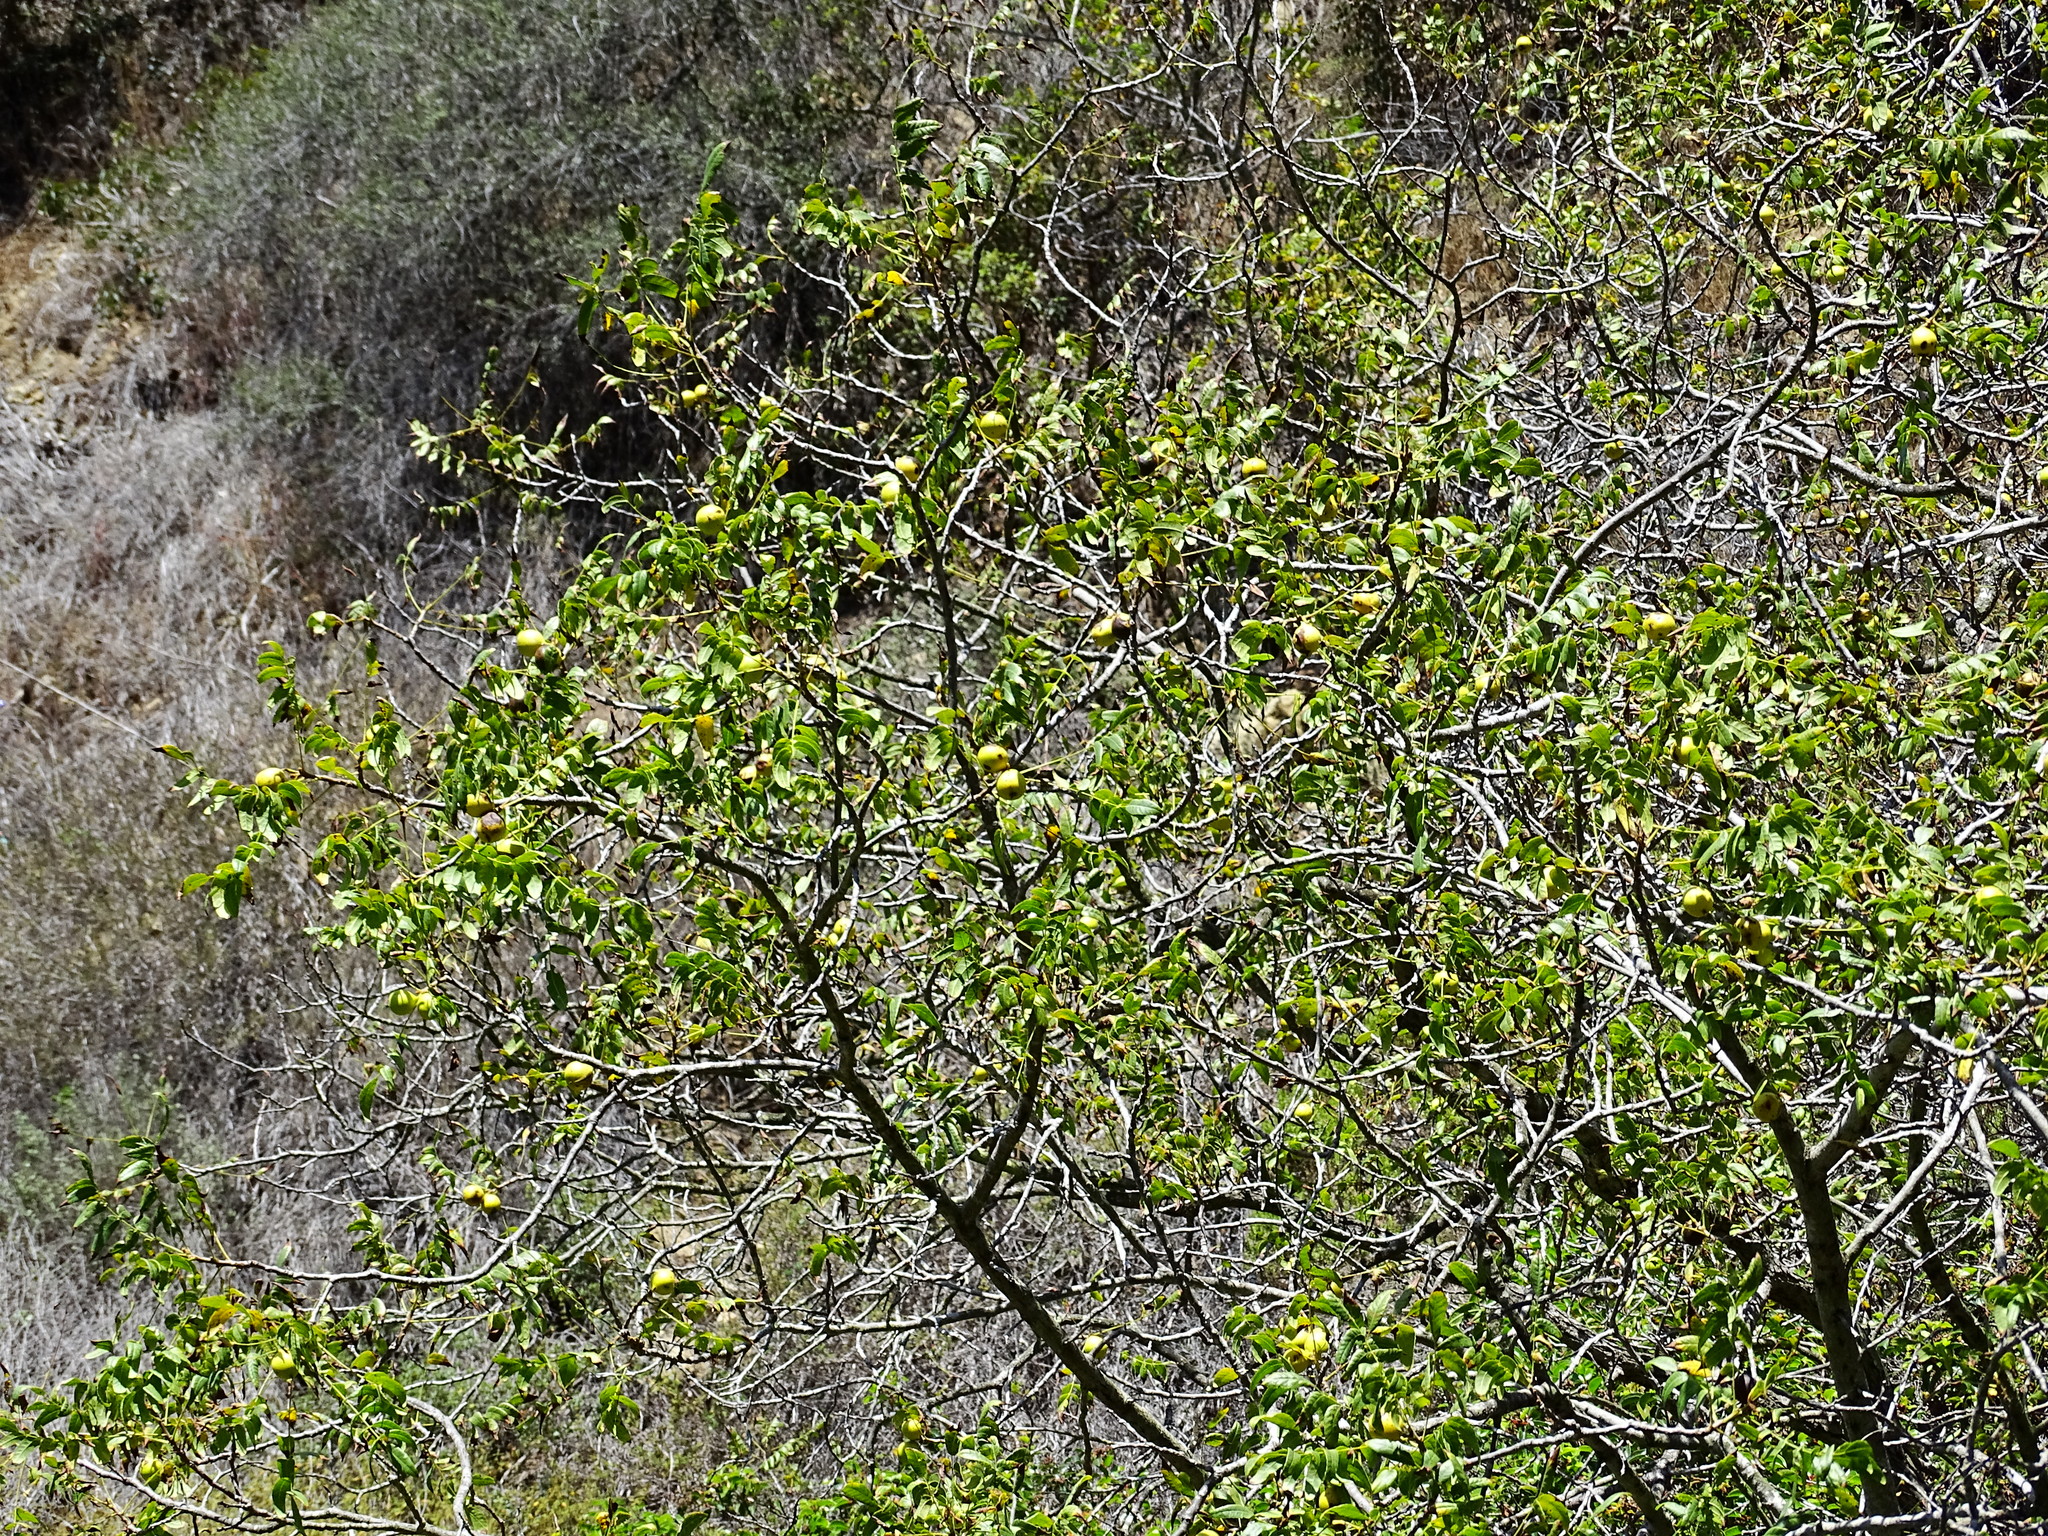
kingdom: Plantae
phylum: Tracheophyta
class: Magnoliopsida
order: Fagales
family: Juglandaceae
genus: Juglans
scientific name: Juglans californica
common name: Southern california black walnut
